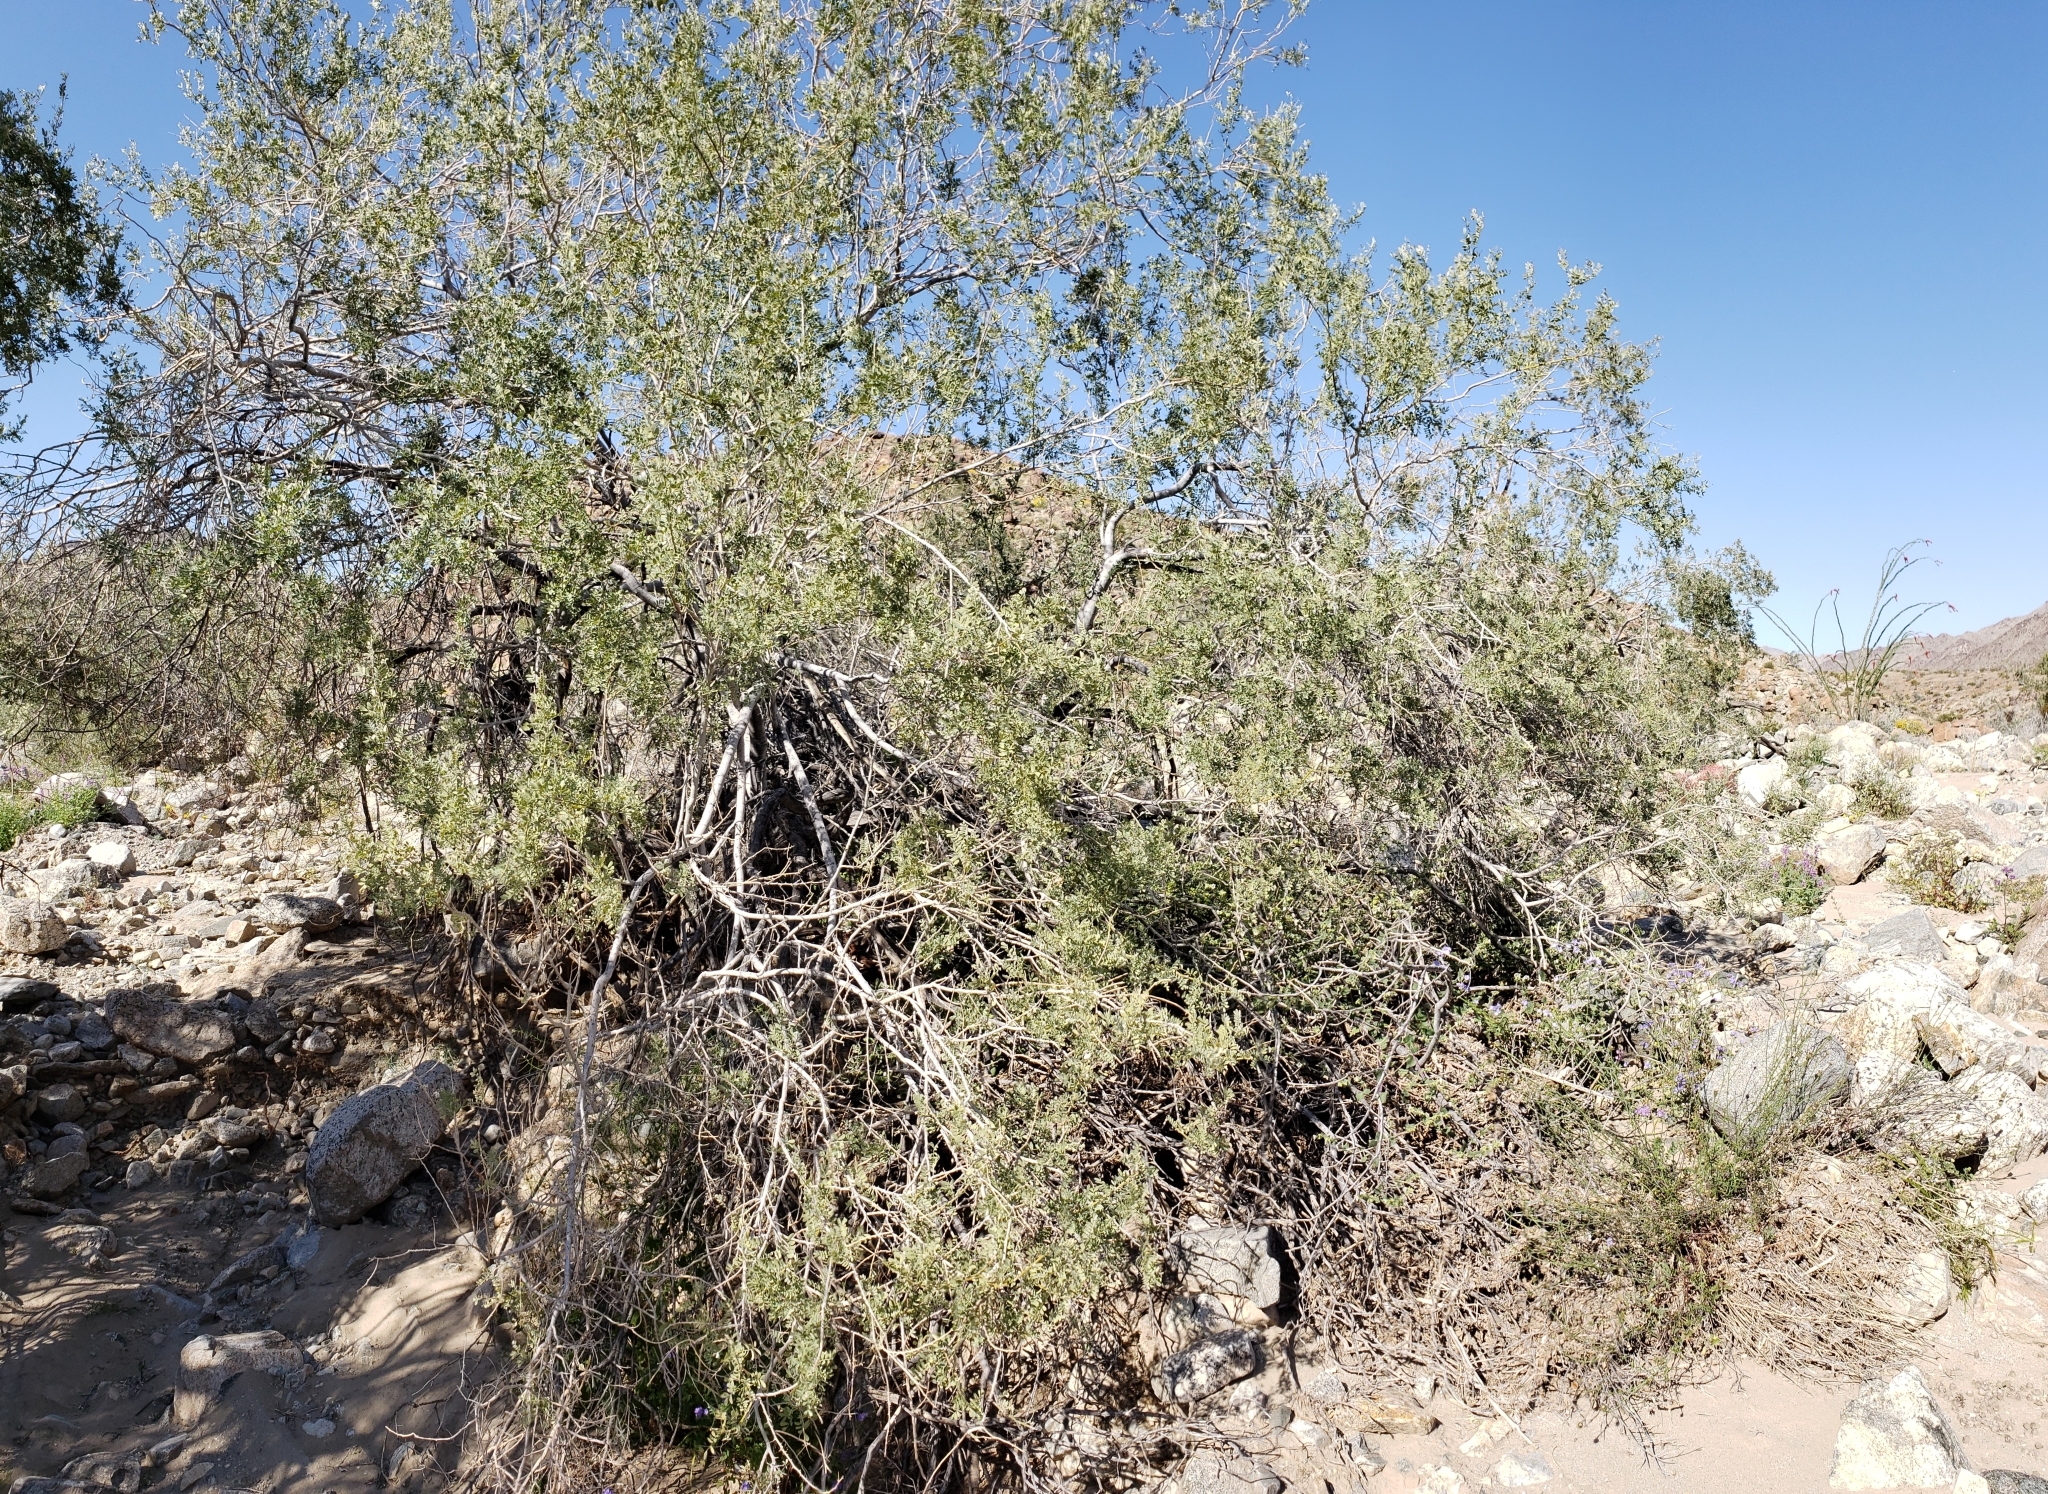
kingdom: Plantae
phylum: Tracheophyta
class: Magnoliopsida
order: Fabales
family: Fabaceae
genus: Olneya
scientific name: Olneya tesota
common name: Desert ironwood
